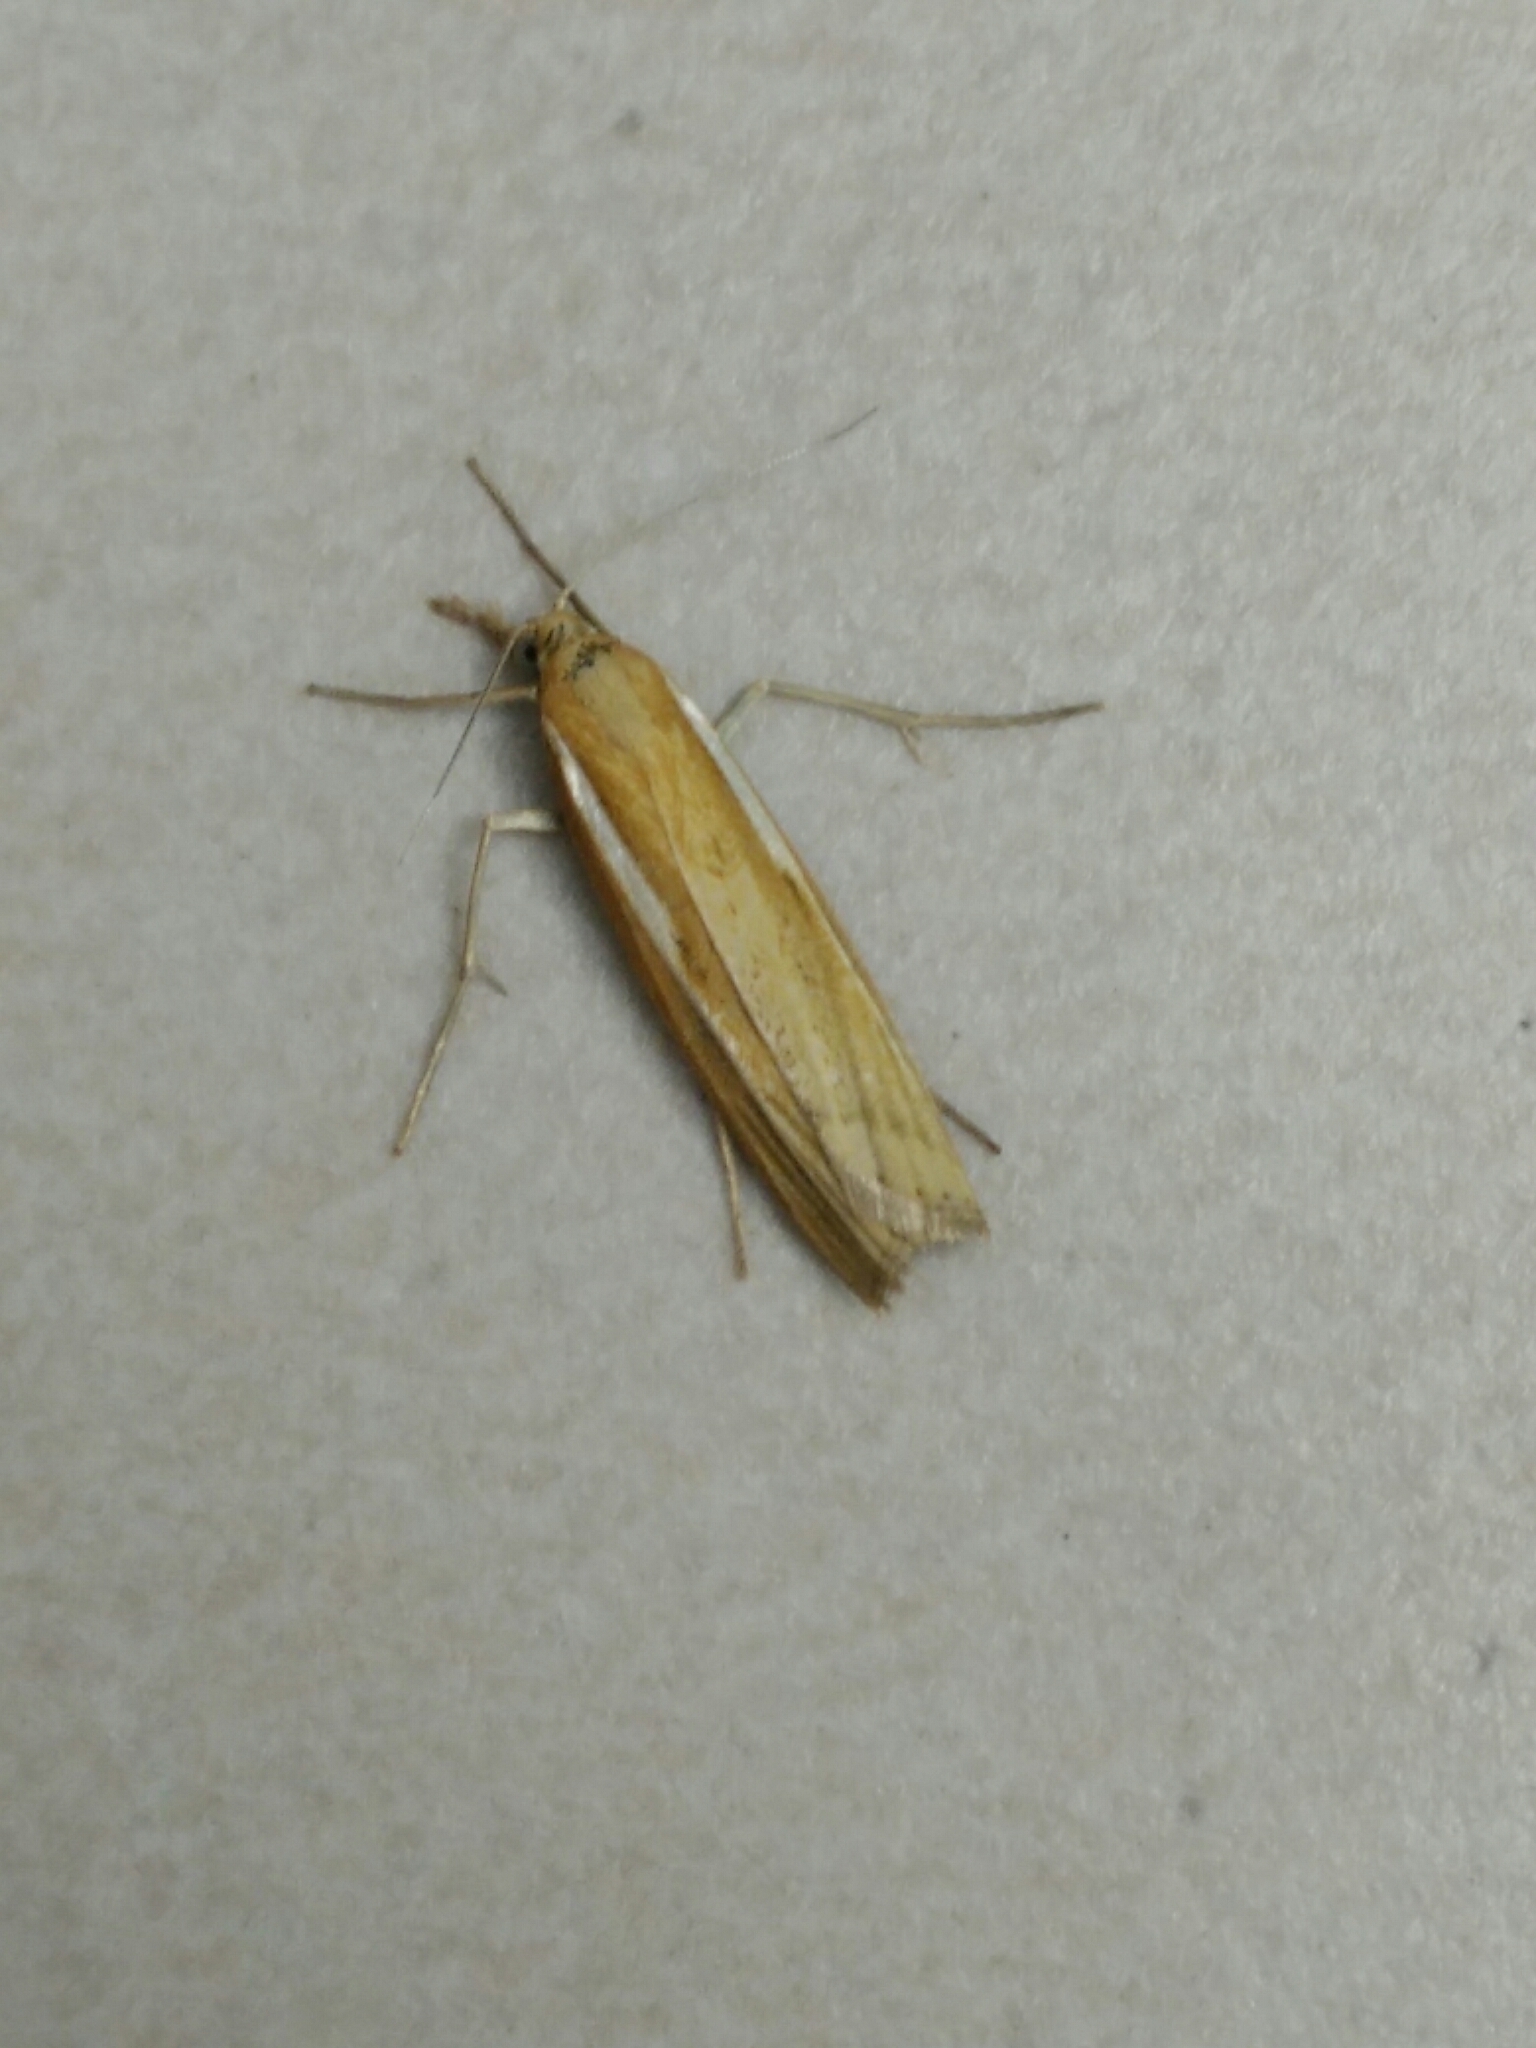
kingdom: Animalia
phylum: Arthropoda
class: Insecta
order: Lepidoptera
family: Crambidae
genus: Agriphila
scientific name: Agriphila tristellus
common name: Common grass-veneer
